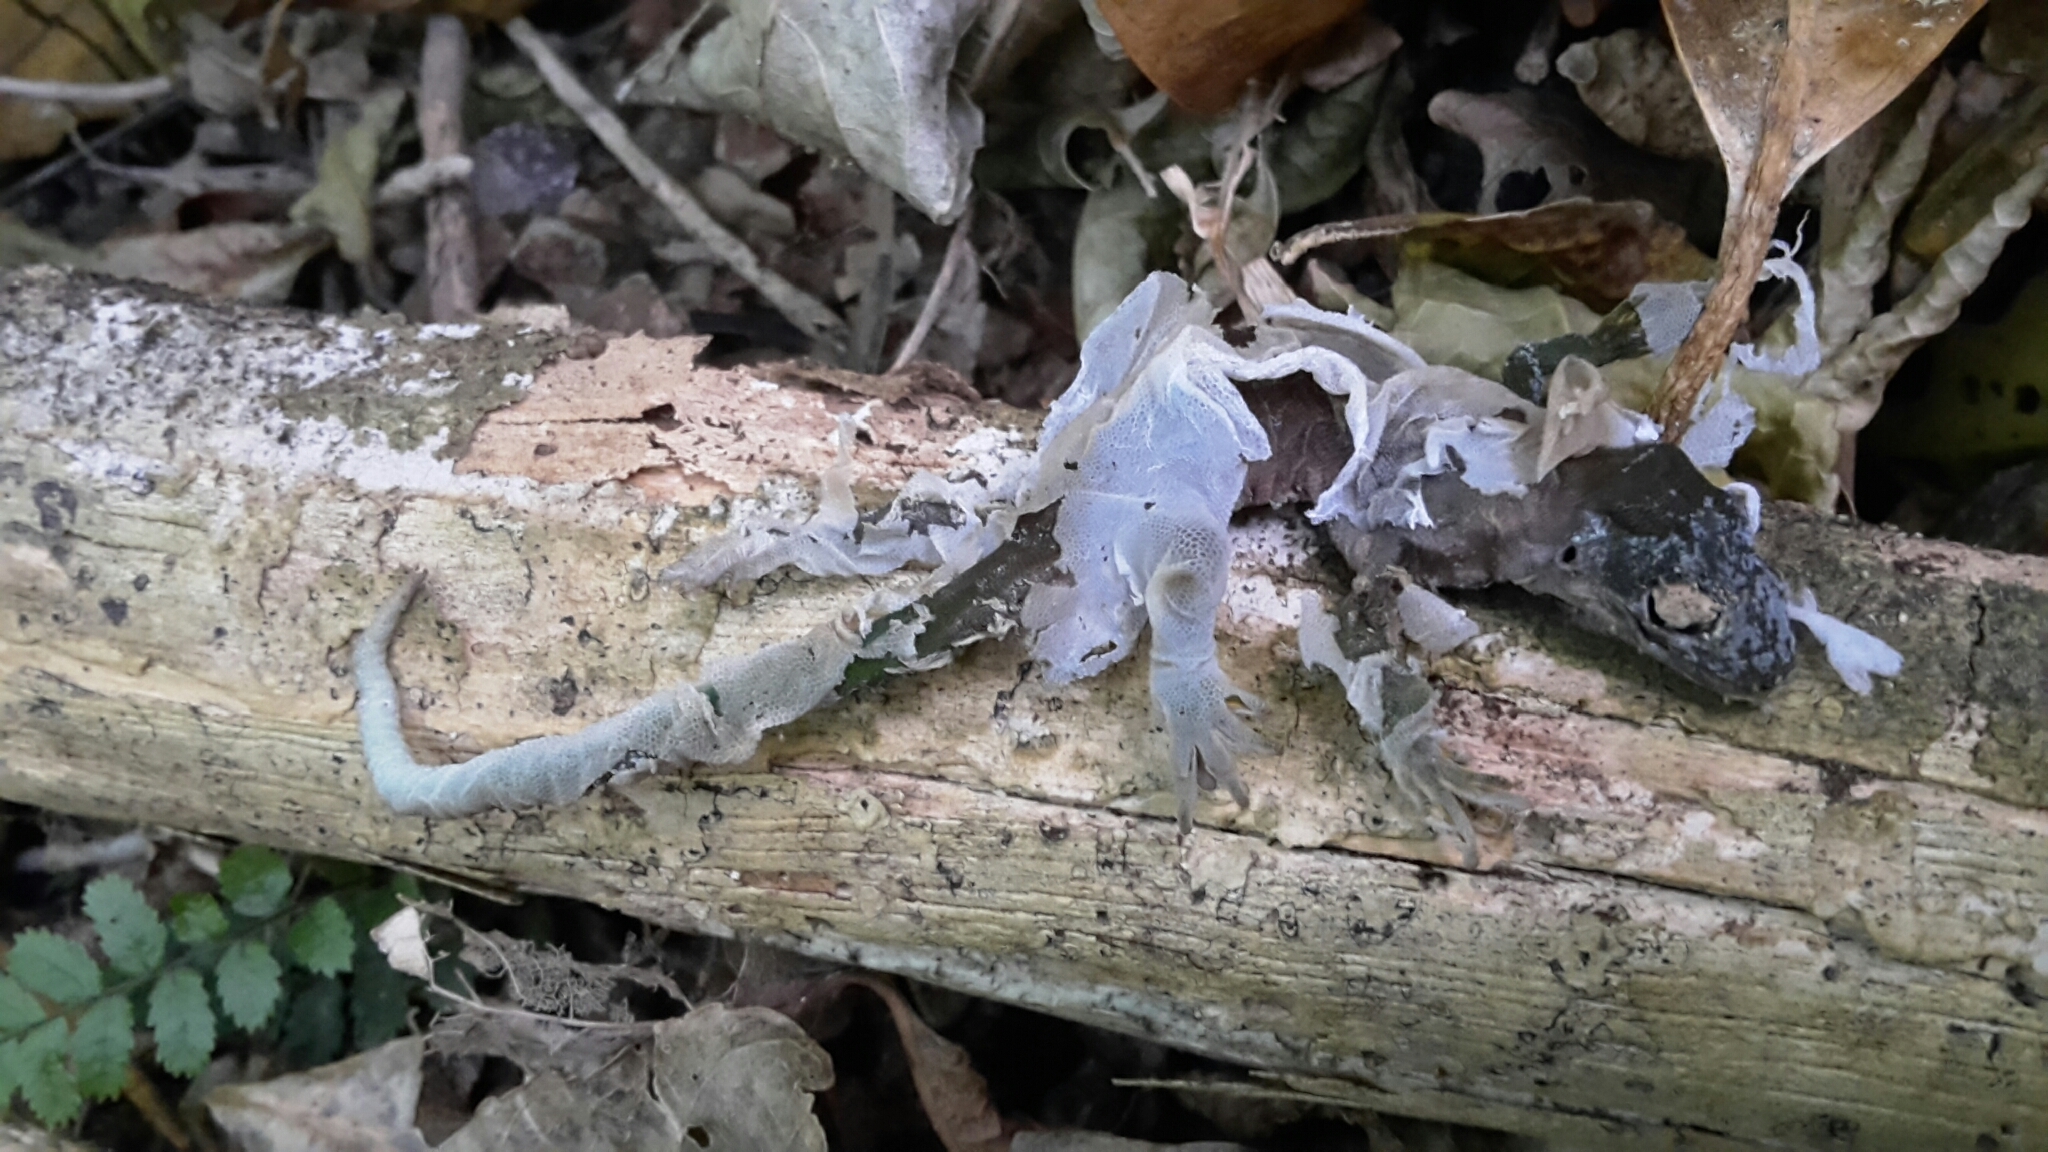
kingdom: Animalia
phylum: Chordata
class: Squamata
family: Diplodactylidae
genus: Woodworthia
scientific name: Woodworthia maculata
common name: Raukawa gecko
